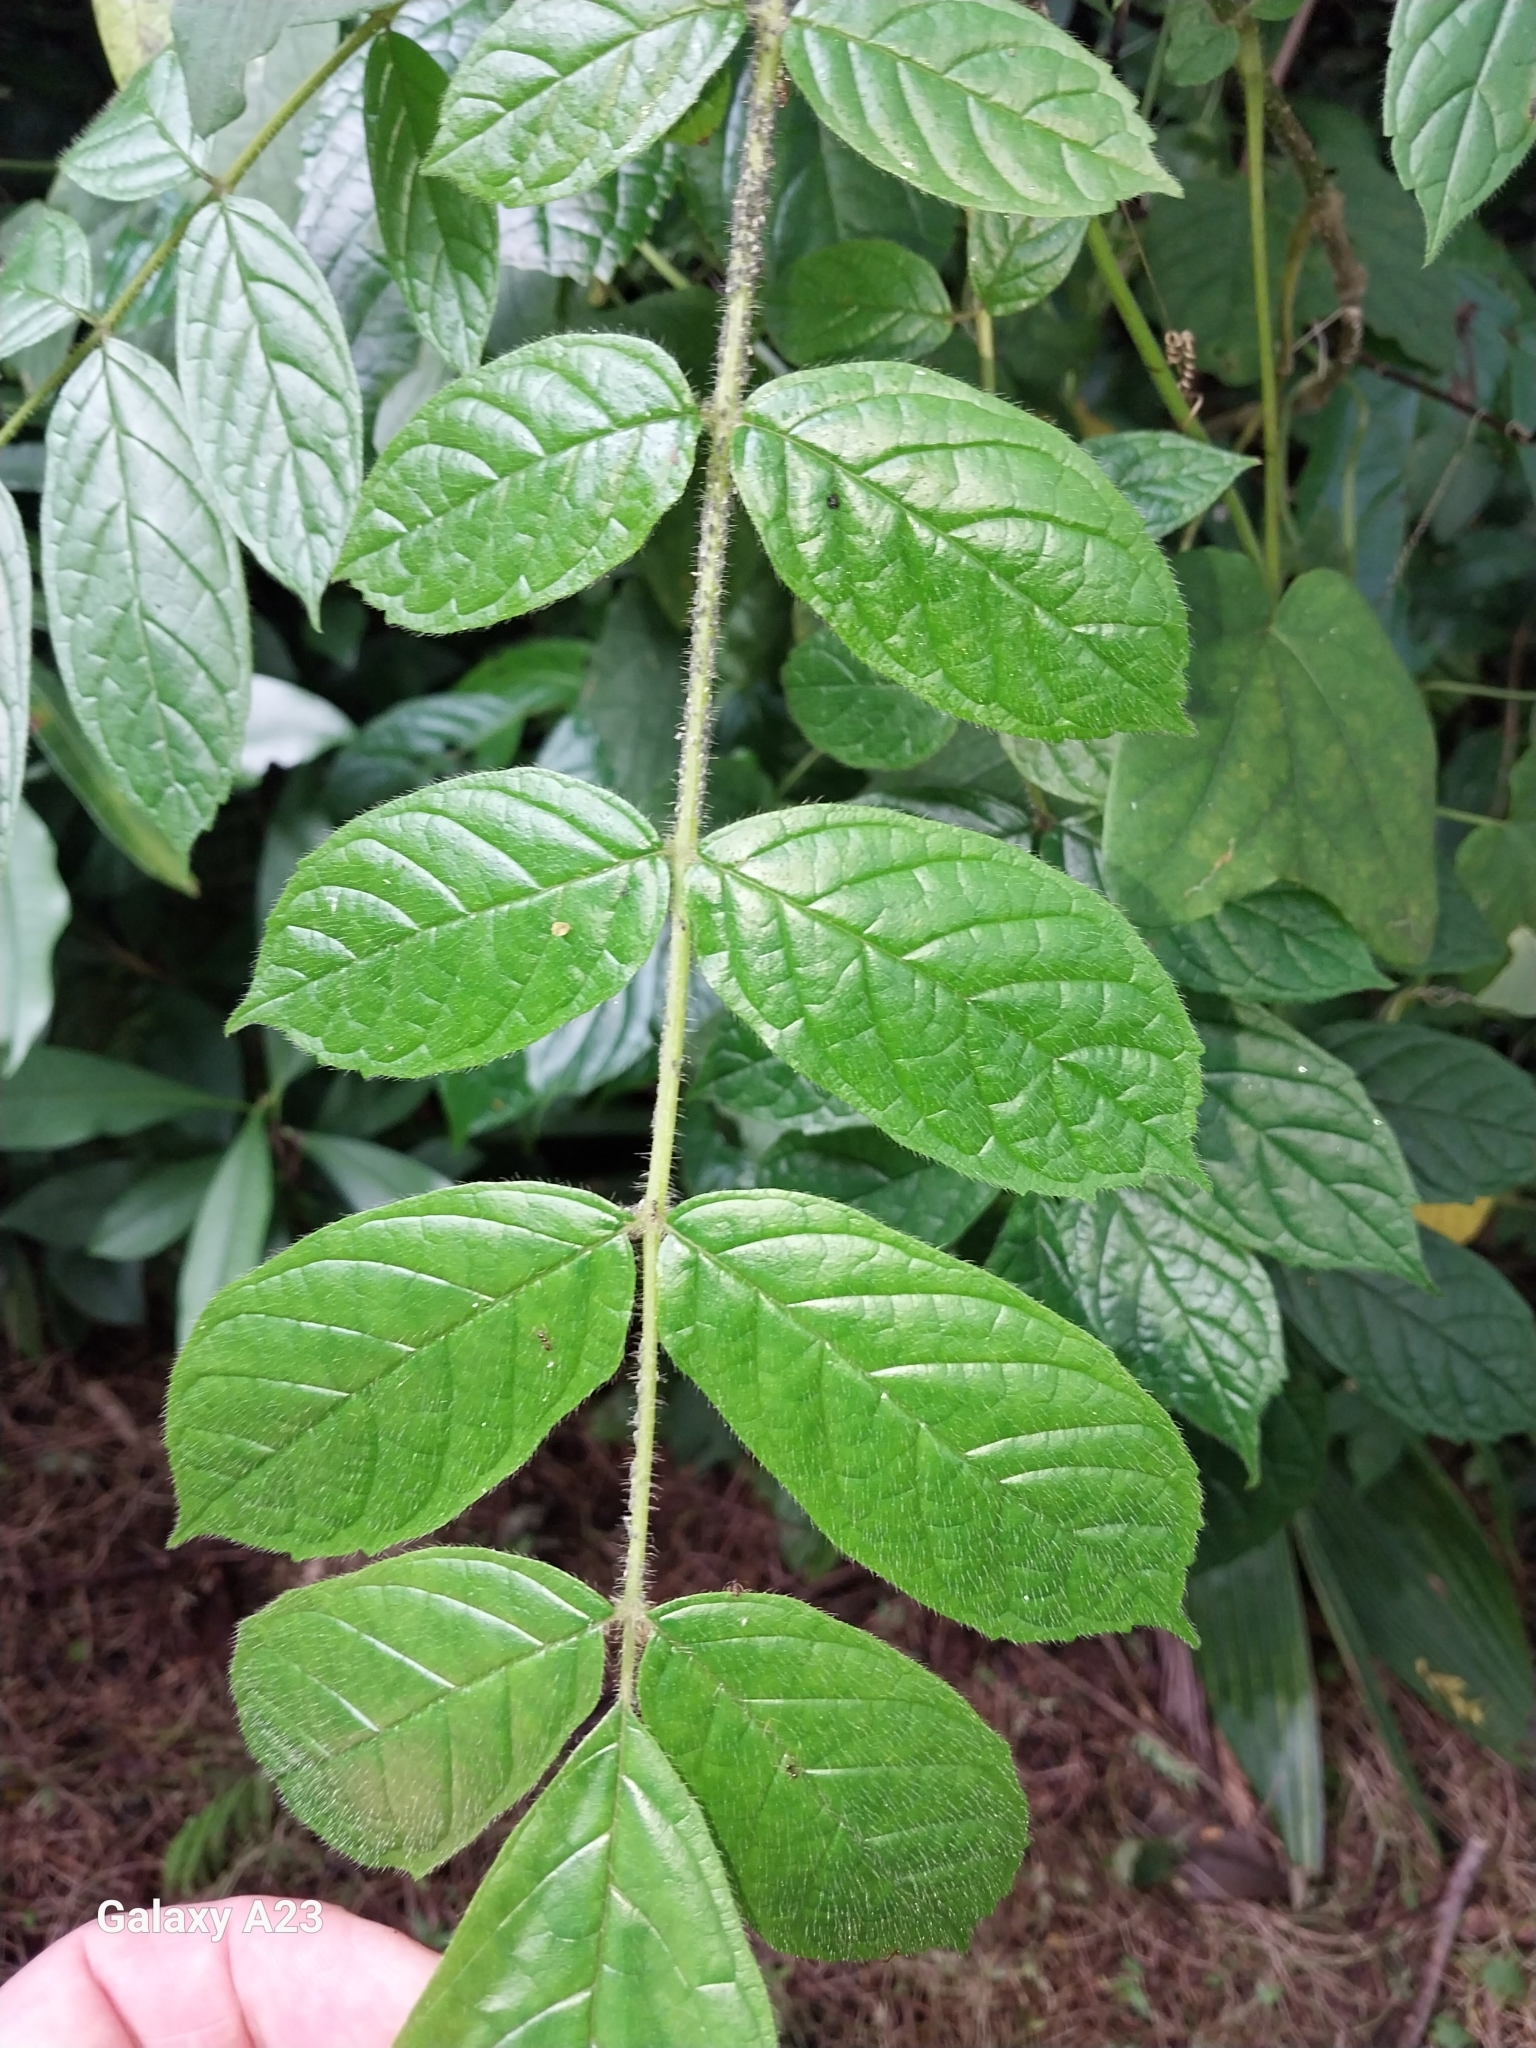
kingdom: Plantae
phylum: Tracheophyta
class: Magnoliopsida
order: Lamiales
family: Bignoniaceae
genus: Spathodea
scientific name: Spathodea campanulata
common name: African tuliptree
